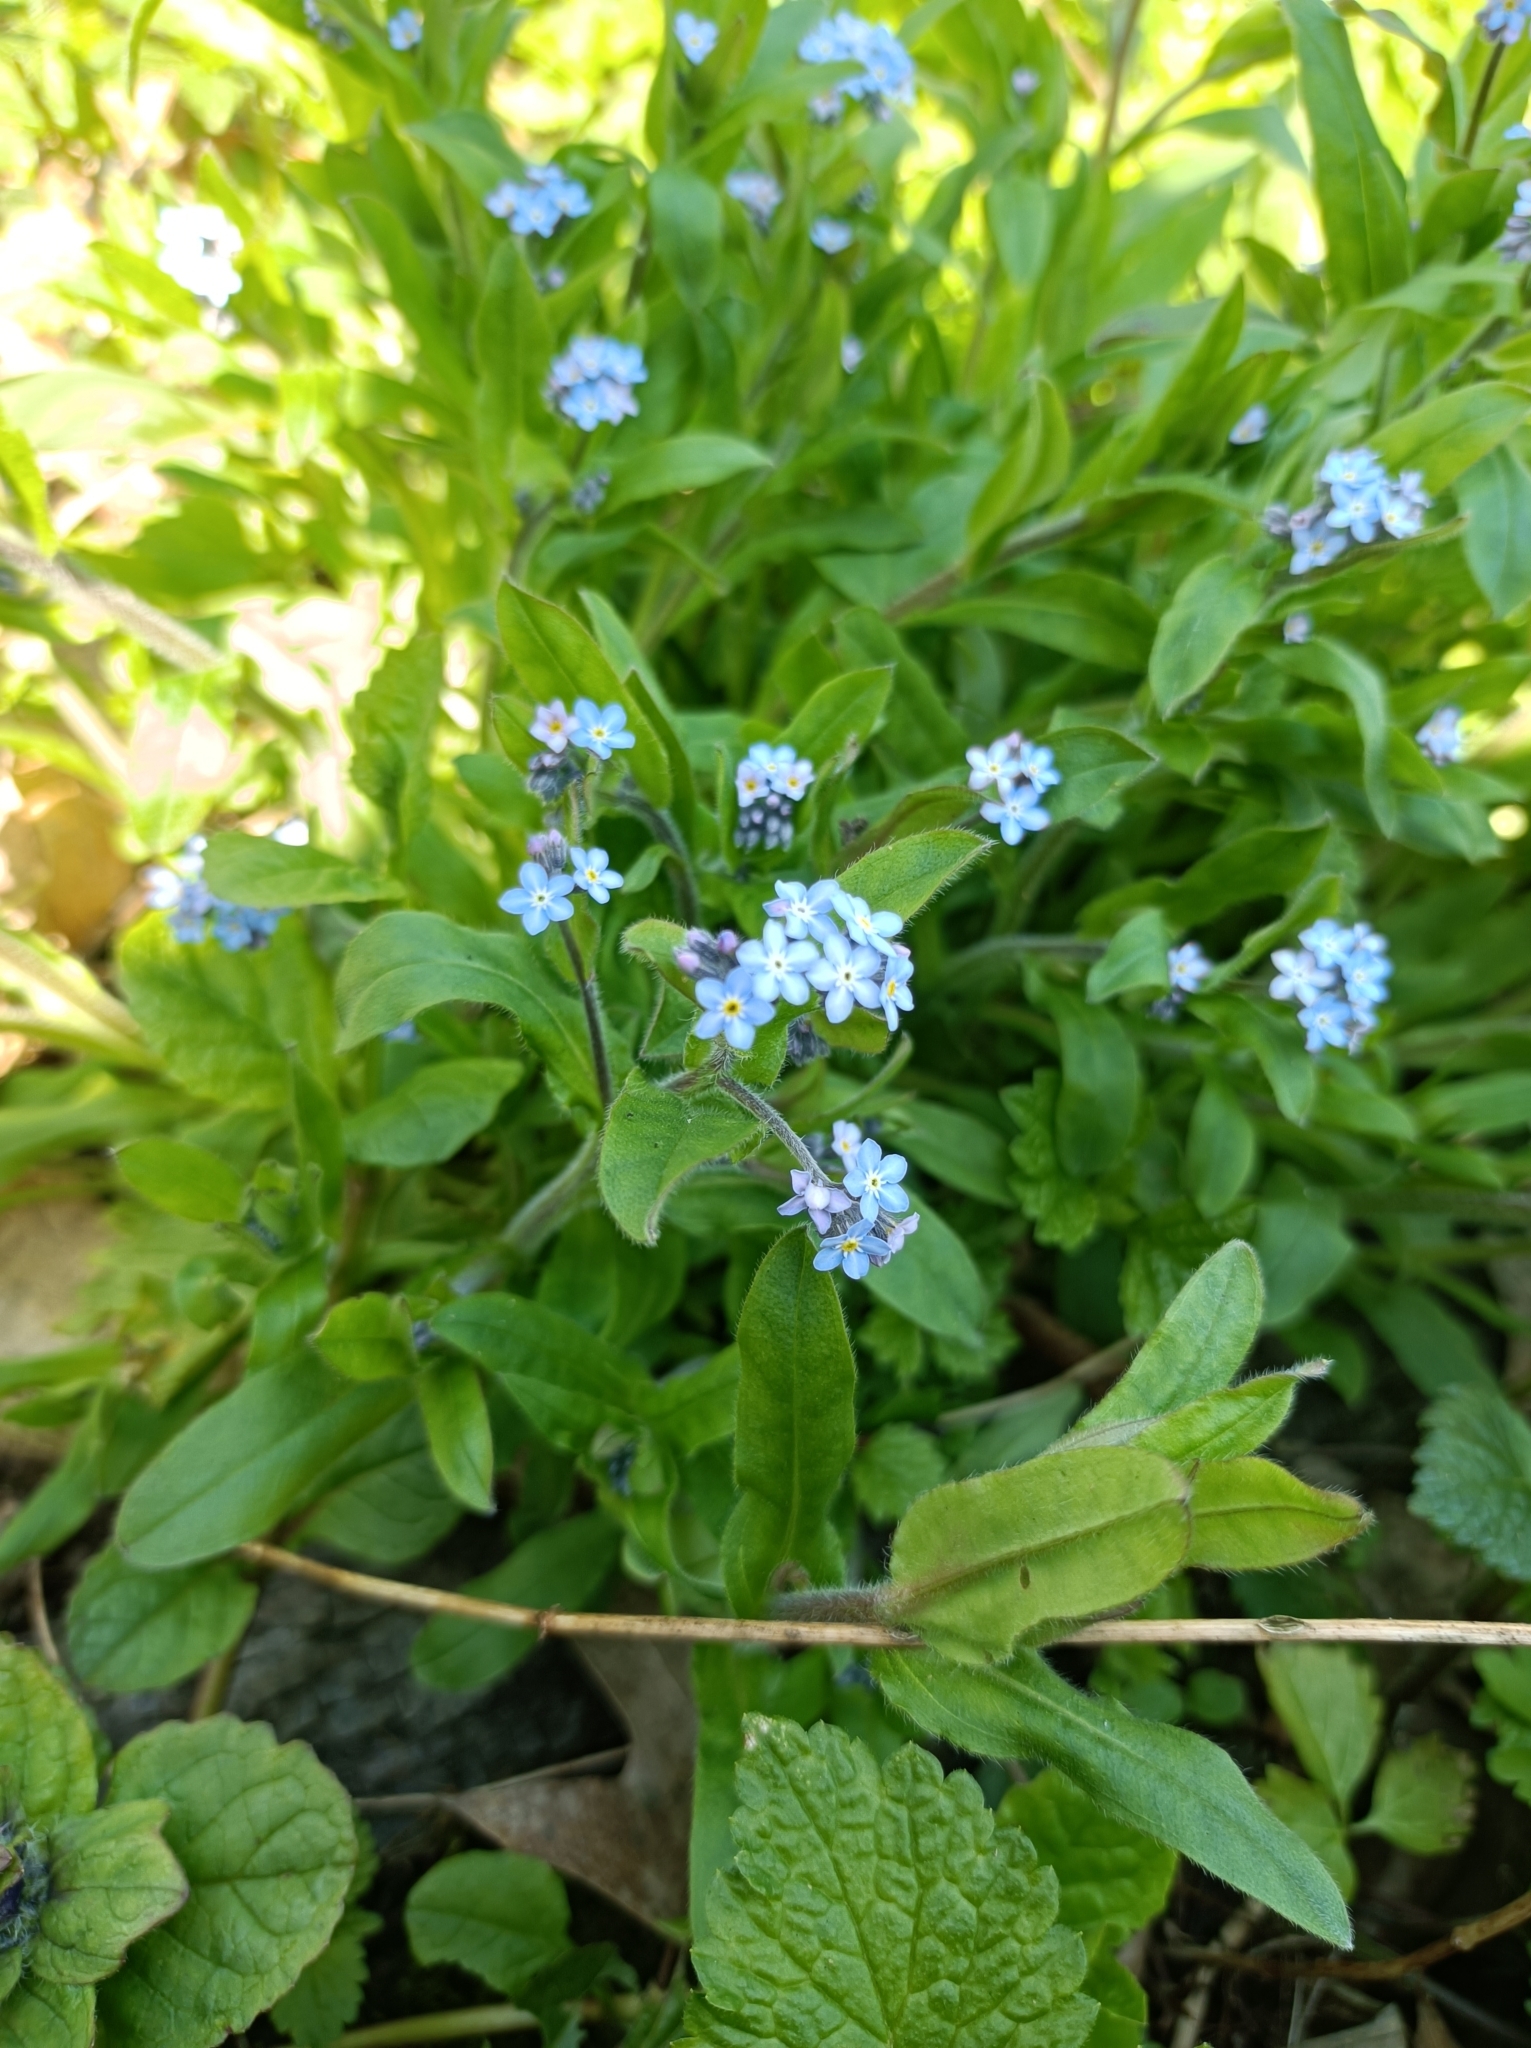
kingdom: Plantae
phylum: Tracheophyta
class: Magnoliopsida
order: Boraginales
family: Boraginaceae
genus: Myosotis
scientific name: Myosotis sylvatica
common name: Wood forget-me-not
